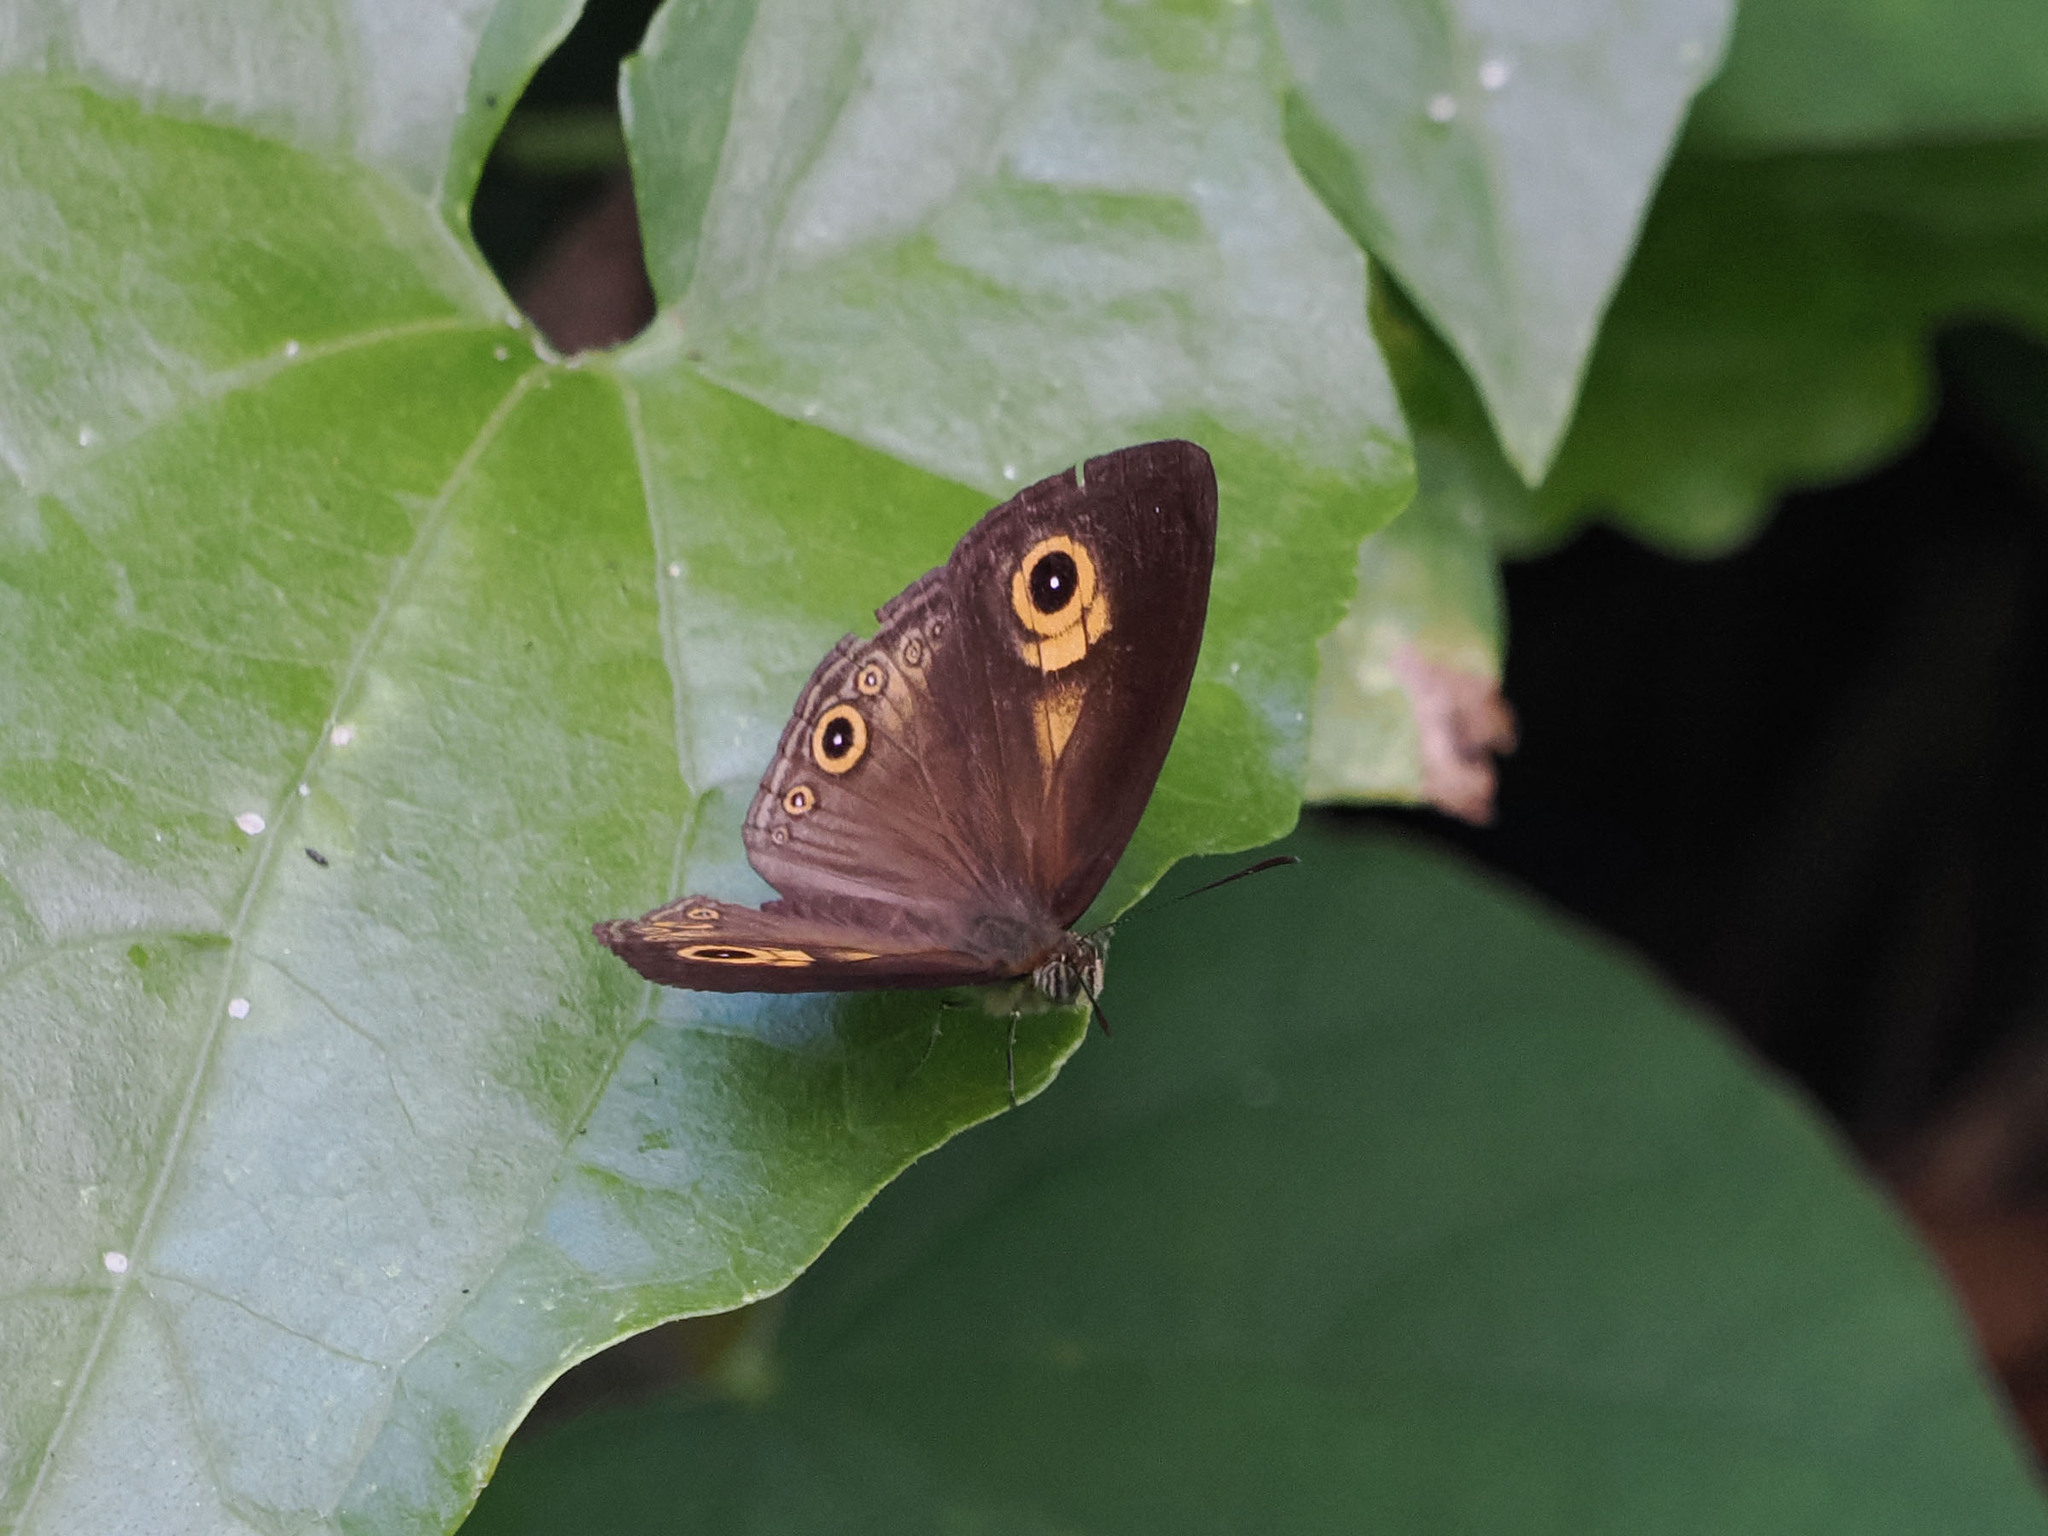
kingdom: Animalia
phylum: Arthropoda
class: Insecta
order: Lepidoptera
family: Nymphalidae
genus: Mycalesis
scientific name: Mycalesis ita
